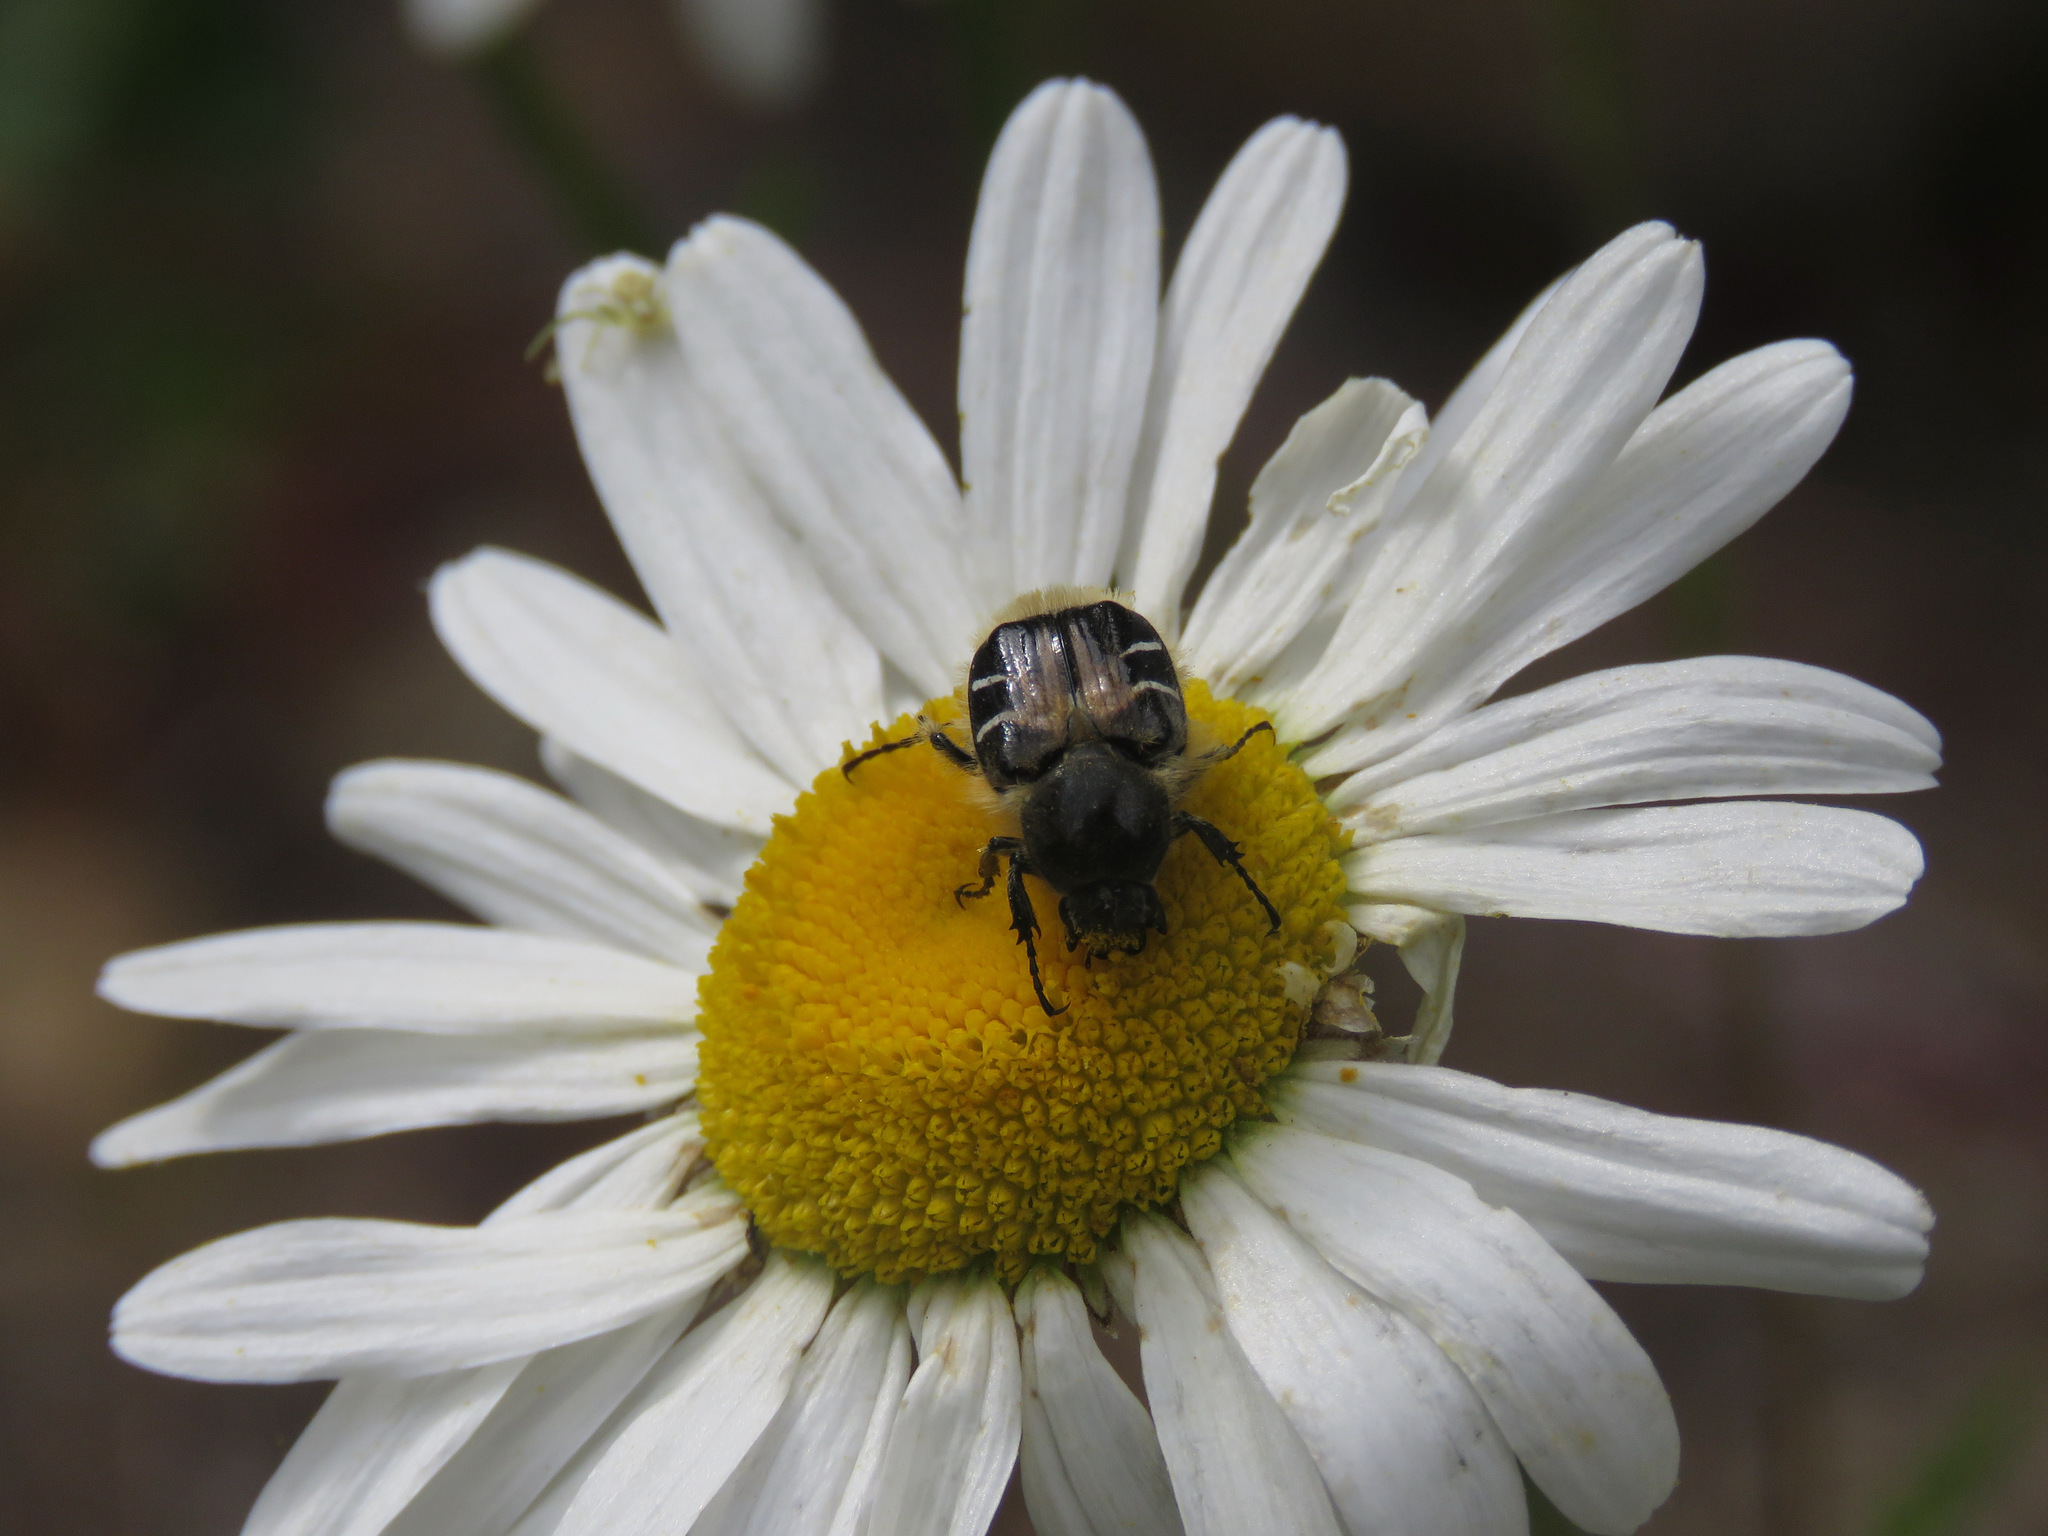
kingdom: Animalia
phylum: Arthropoda
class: Insecta
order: Coleoptera
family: Scarabaeidae
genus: Trichiotinus
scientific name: Trichiotinus assimilis
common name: Bee-mimic beetle
